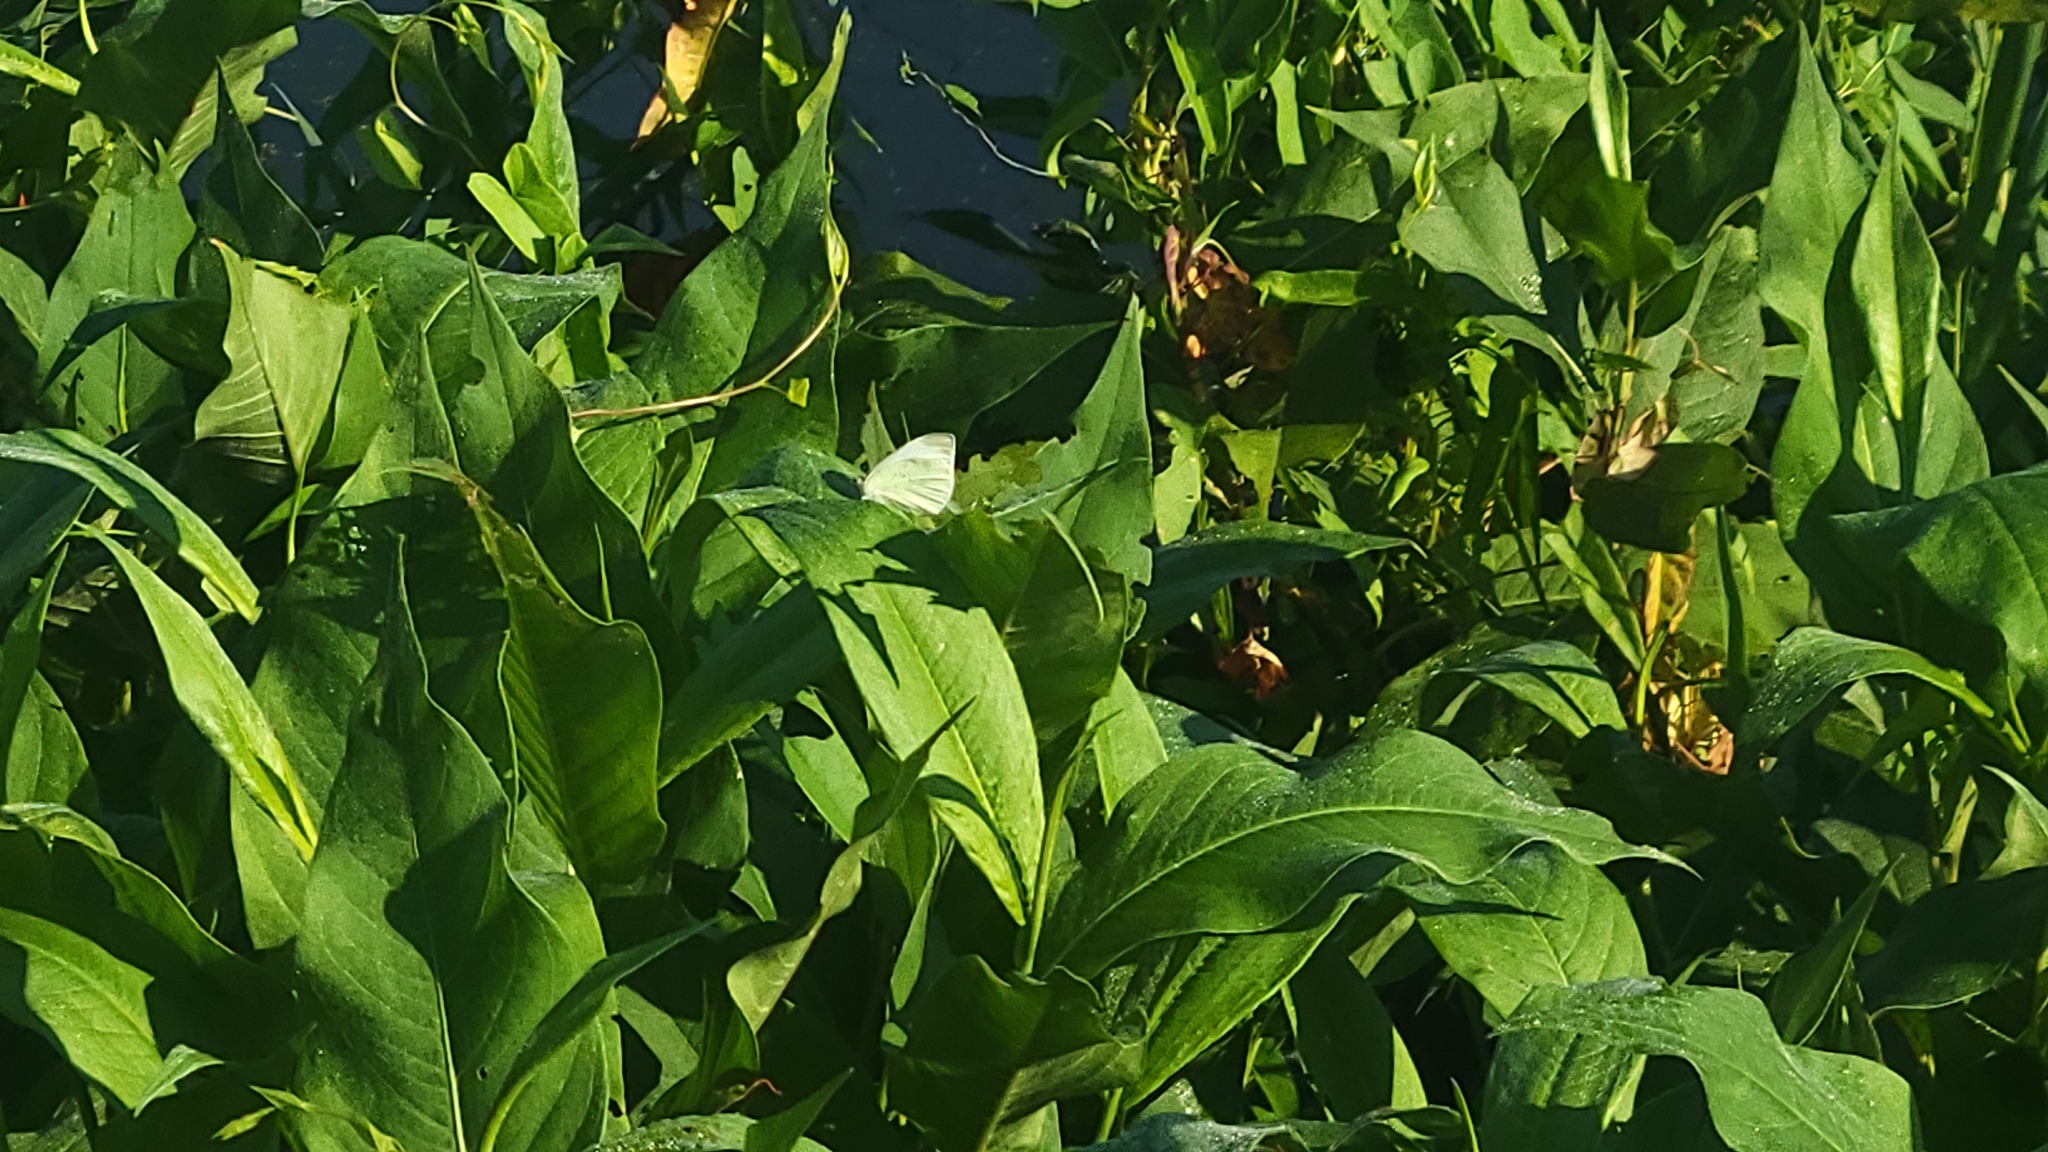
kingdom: Animalia
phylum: Arthropoda
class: Insecta
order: Lepidoptera
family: Pieridae
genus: Pieris
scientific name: Pieris rapae
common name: Small white
